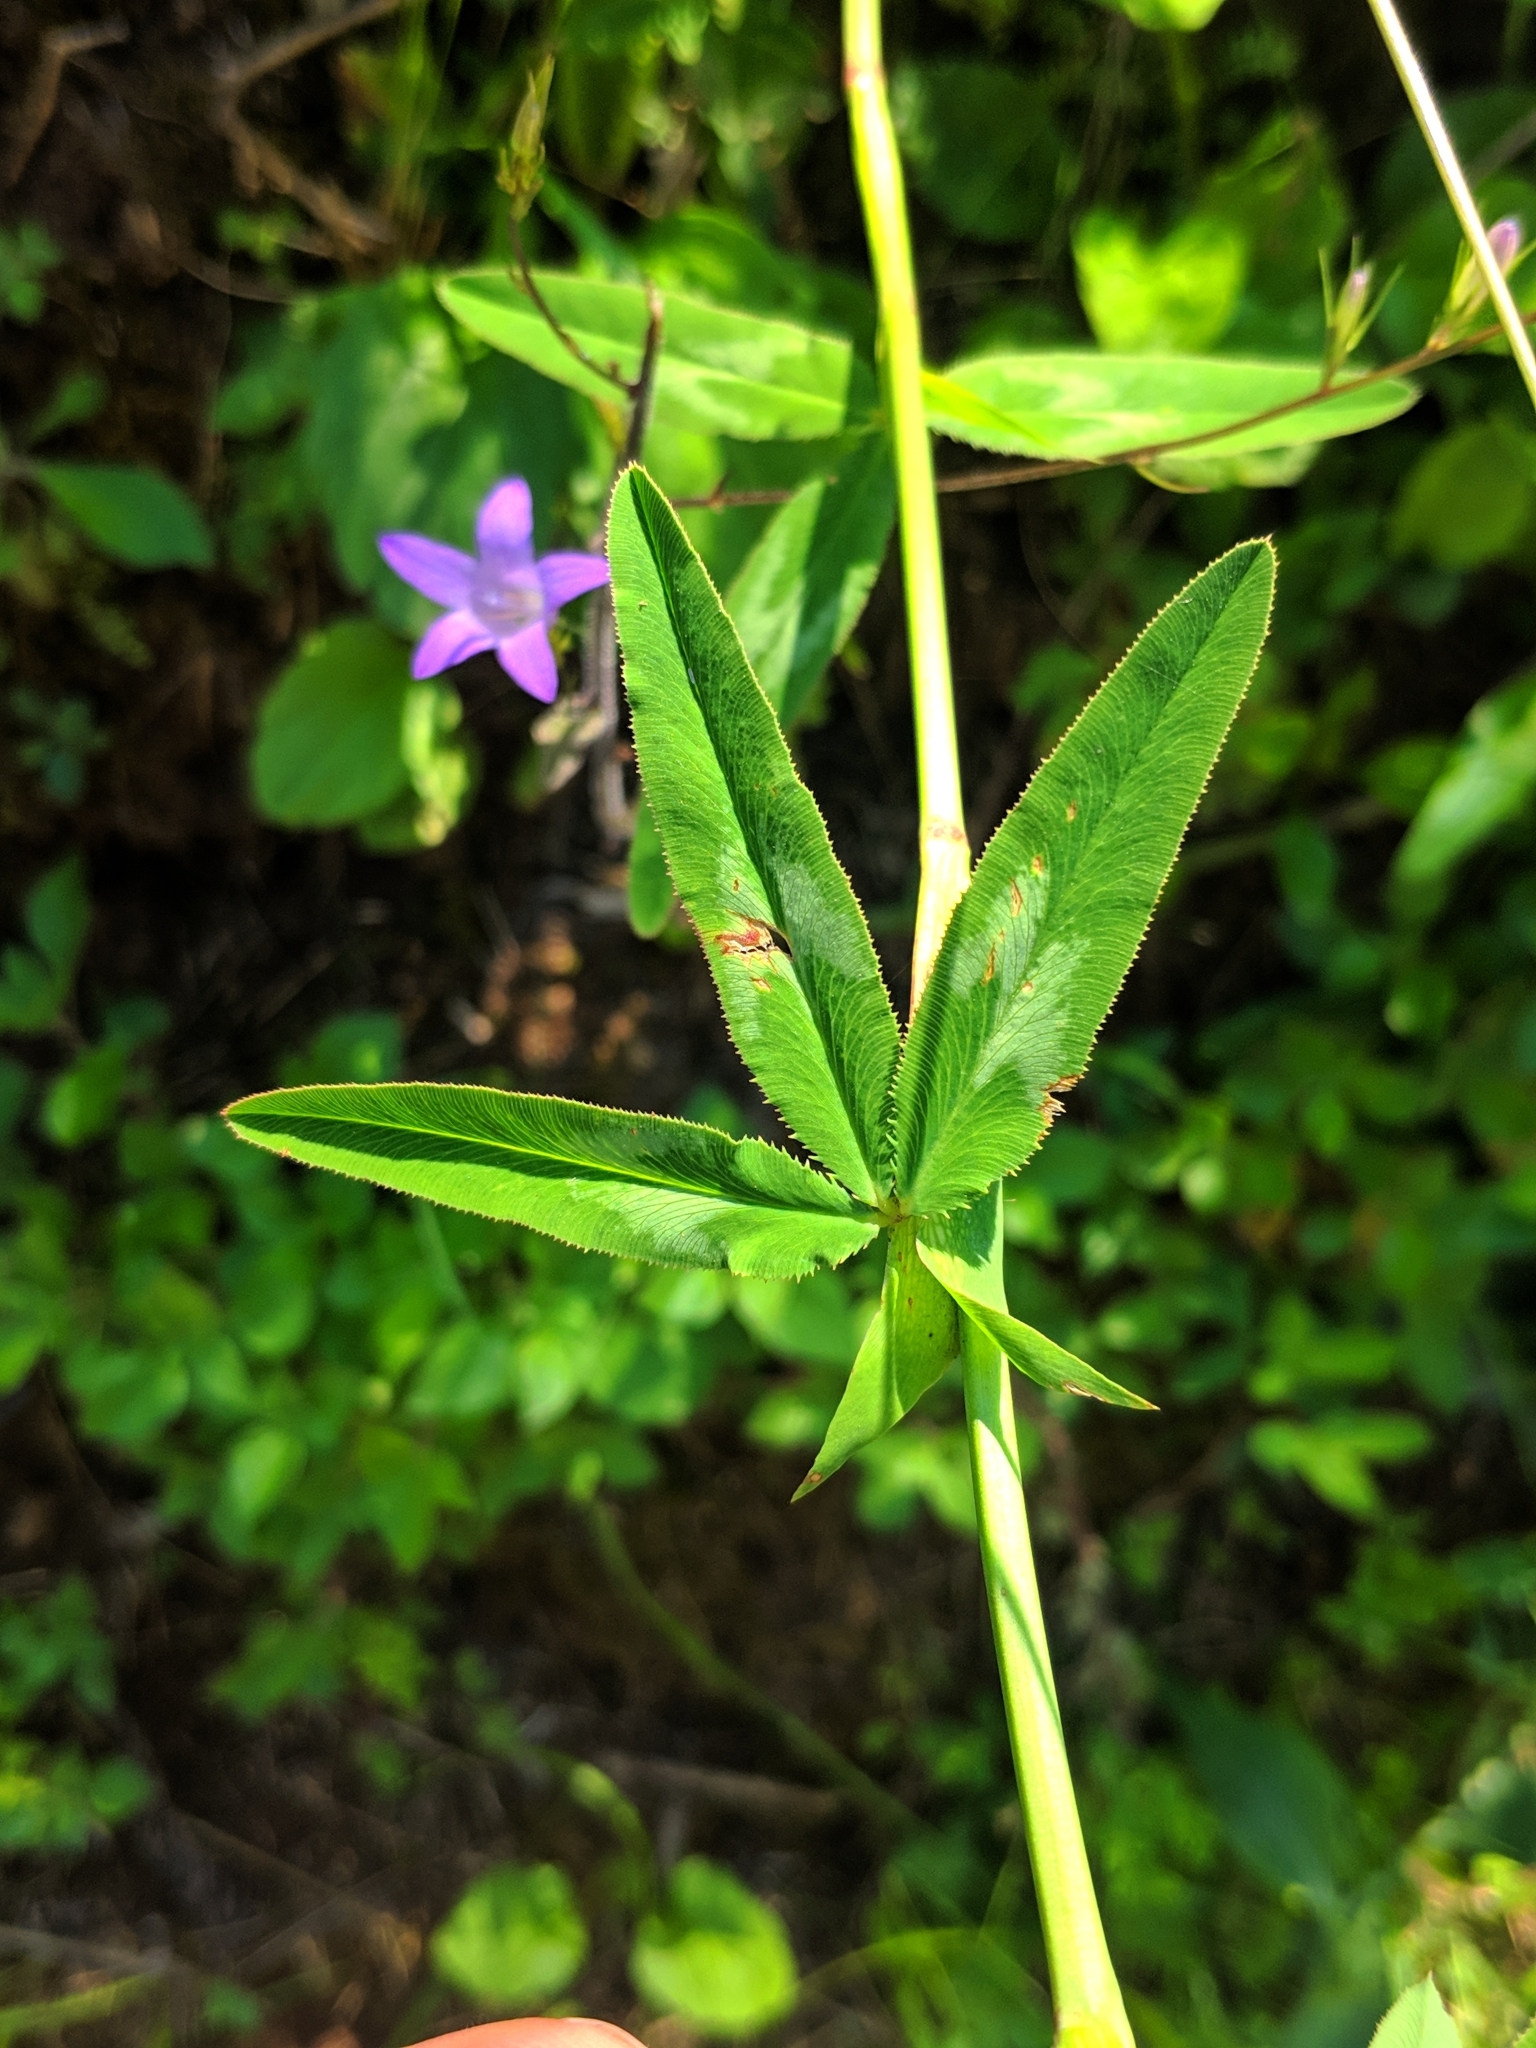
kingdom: Plantae
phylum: Tracheophyta
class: Magnoliopsida
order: Fabales
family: Fabaceae
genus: Trifolium
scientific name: Trifolium rubens
